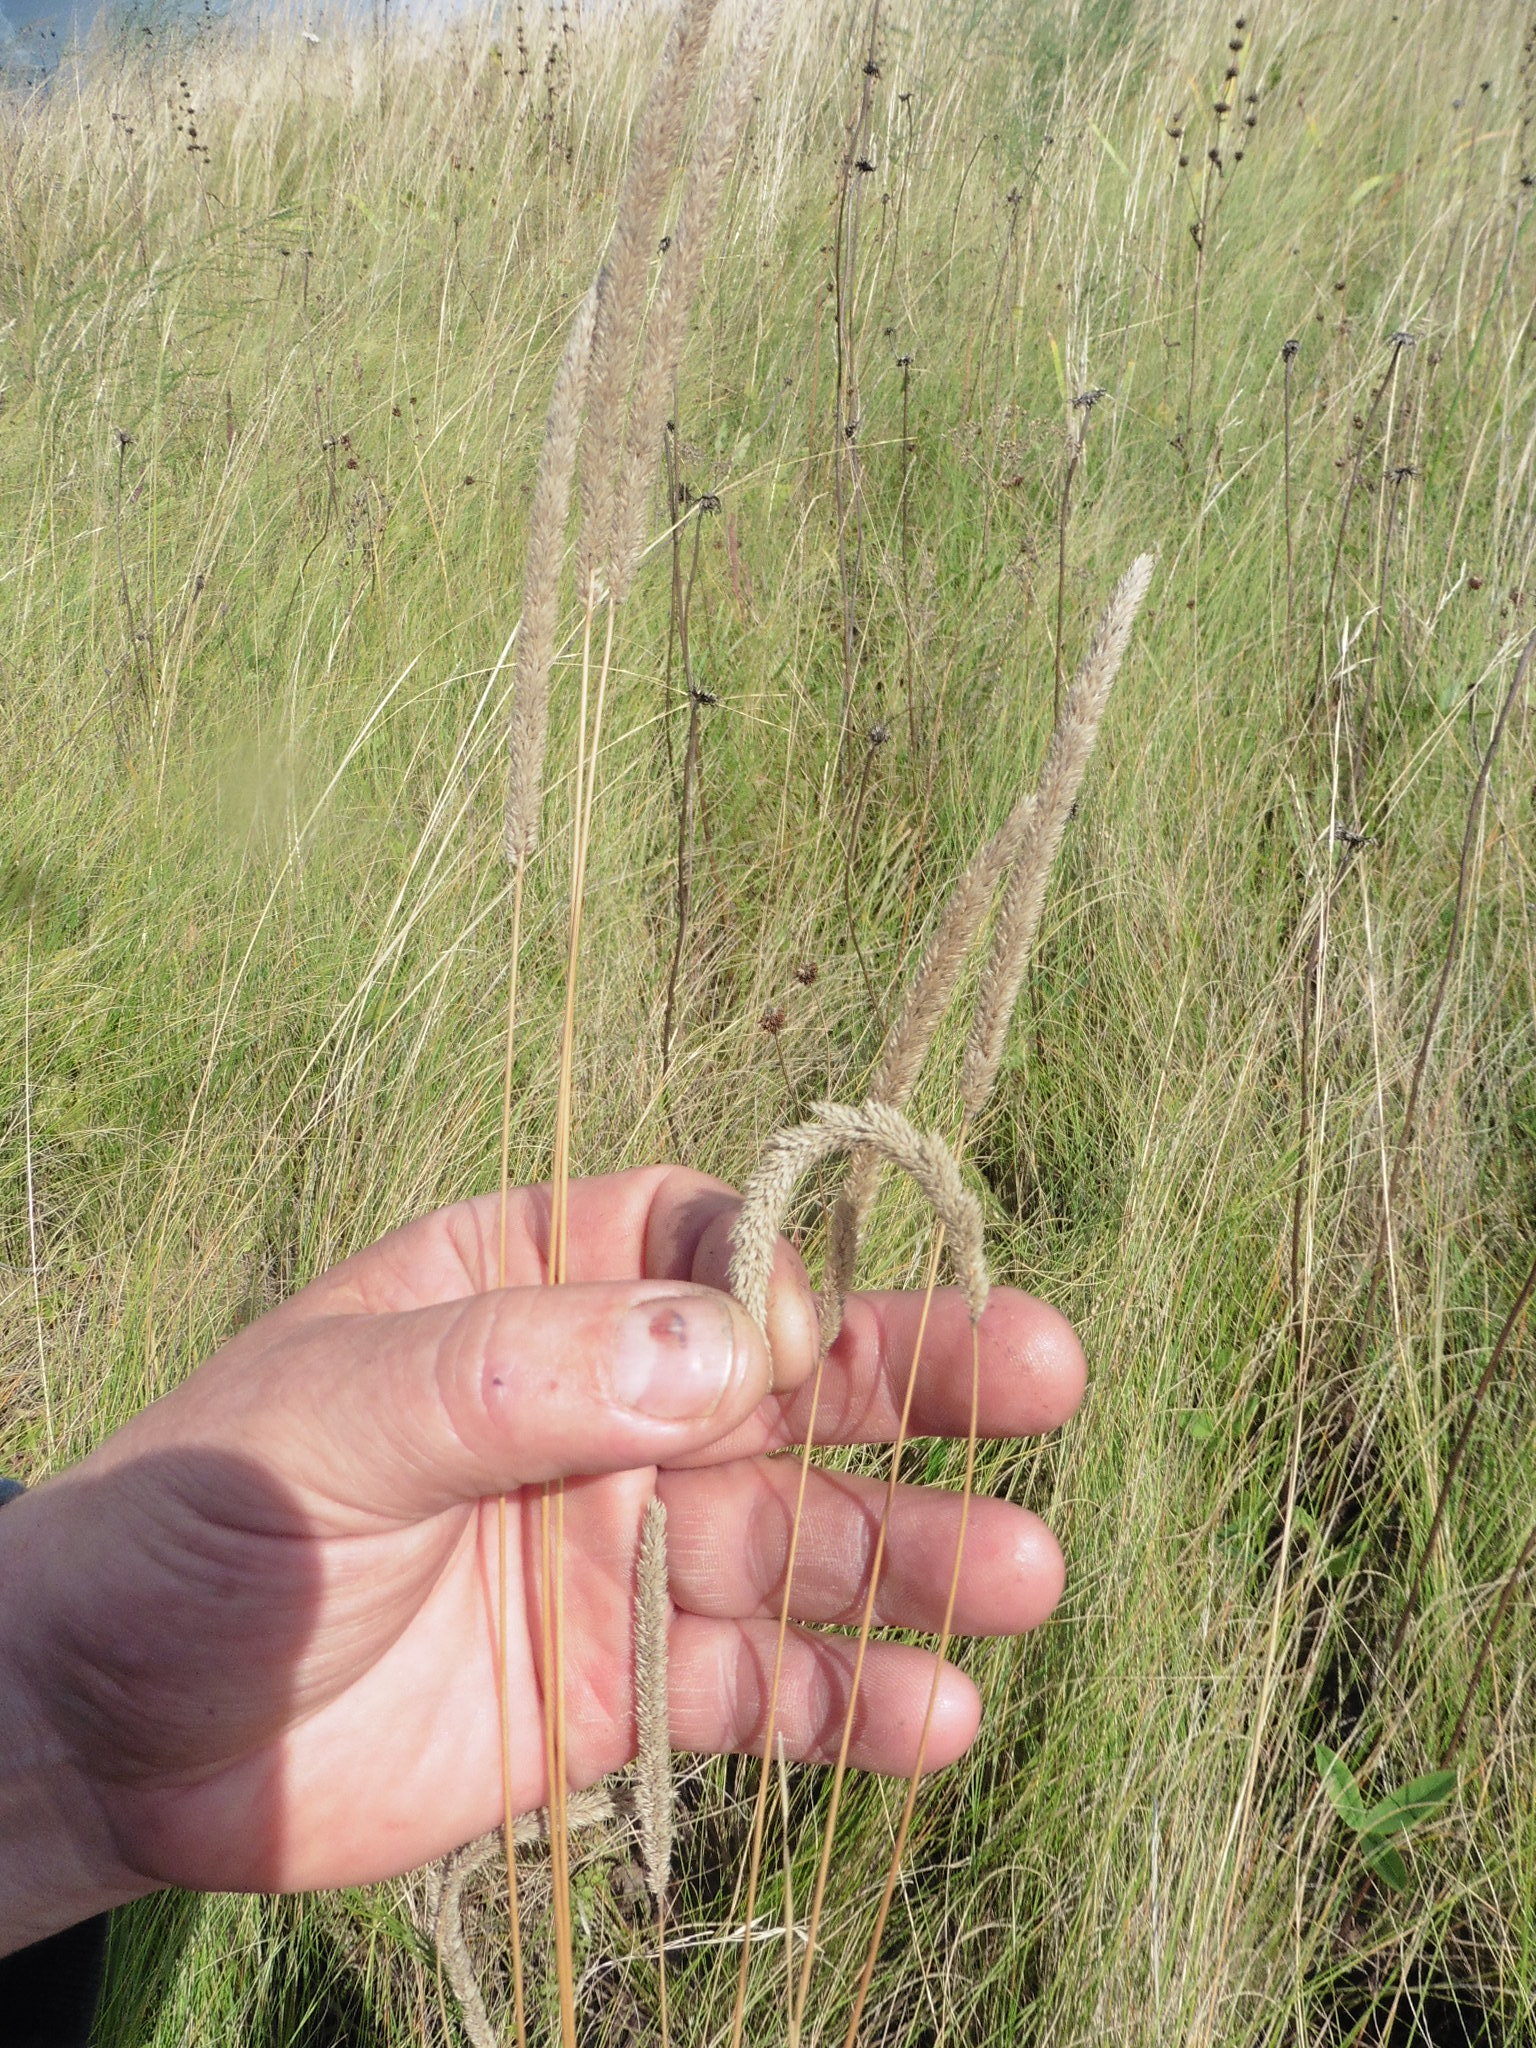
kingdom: Plantae
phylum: Tracheophyta
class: Liliopsida
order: Poales
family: Poaceae
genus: Phleum
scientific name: Phleum phleoides
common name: Purple-stem cat's-tail
